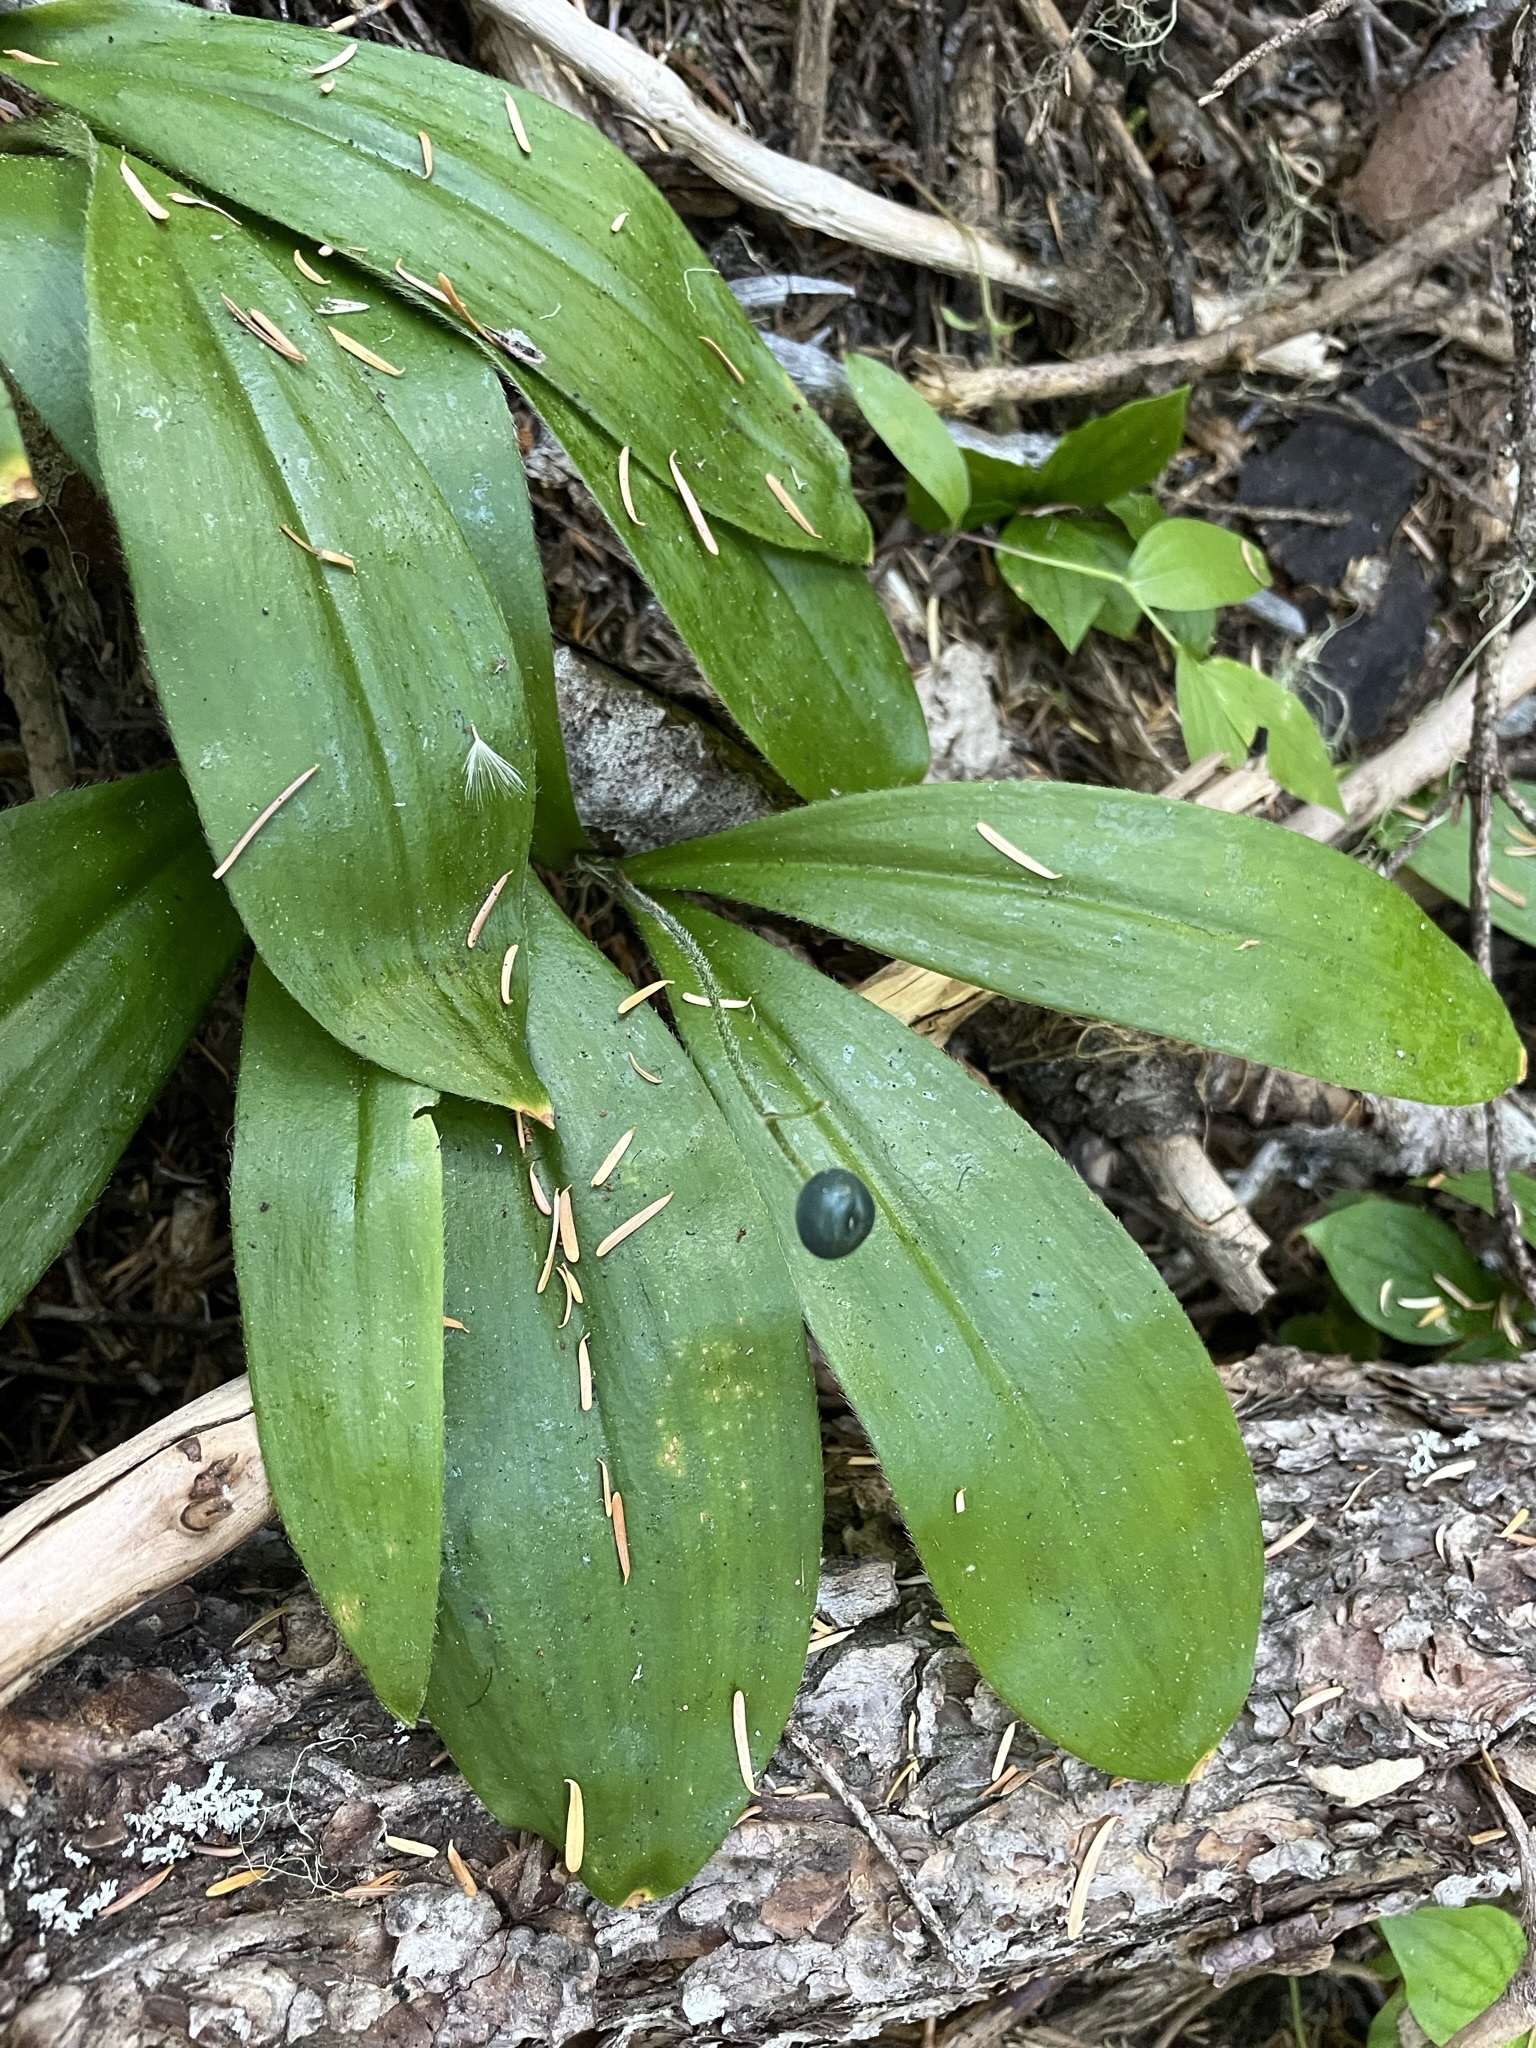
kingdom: Plantae
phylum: Tracheophyta
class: Liliopsida
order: Liliales
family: Liliaceae
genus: Clintonia
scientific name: Clintonia uniflora
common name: Queen's cup
